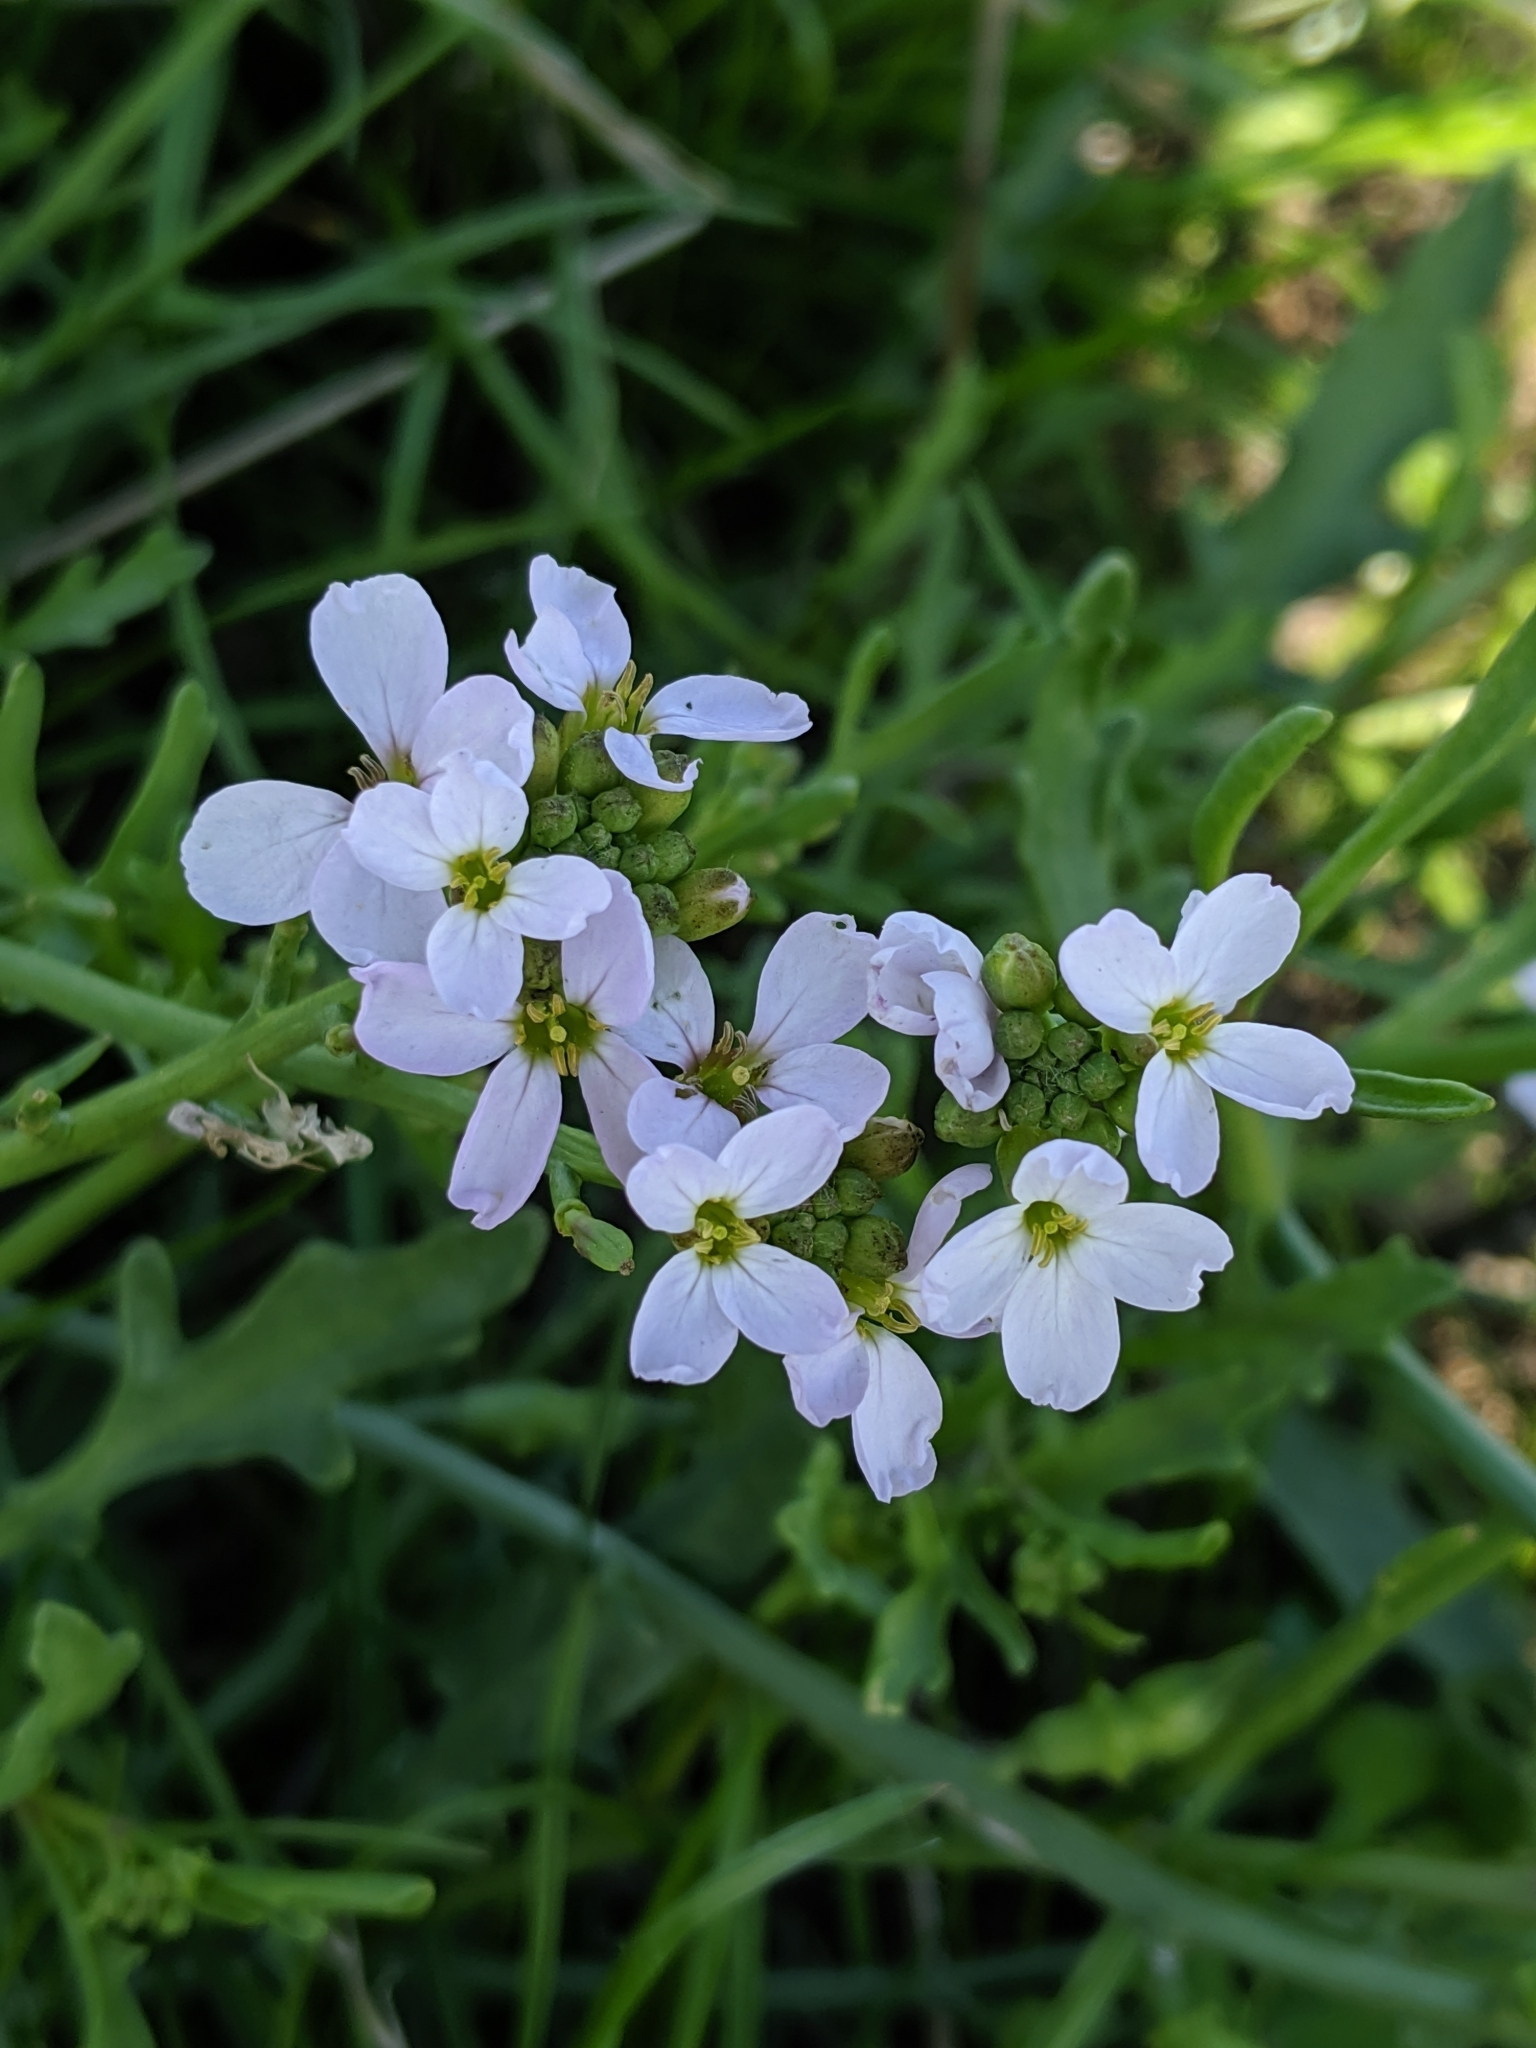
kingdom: Plantae
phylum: Tracheophyta
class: Magnoliopsida
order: Brassicales
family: Brassicaceae
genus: Cakile
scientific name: Cakile maritima
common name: Sea rocket
